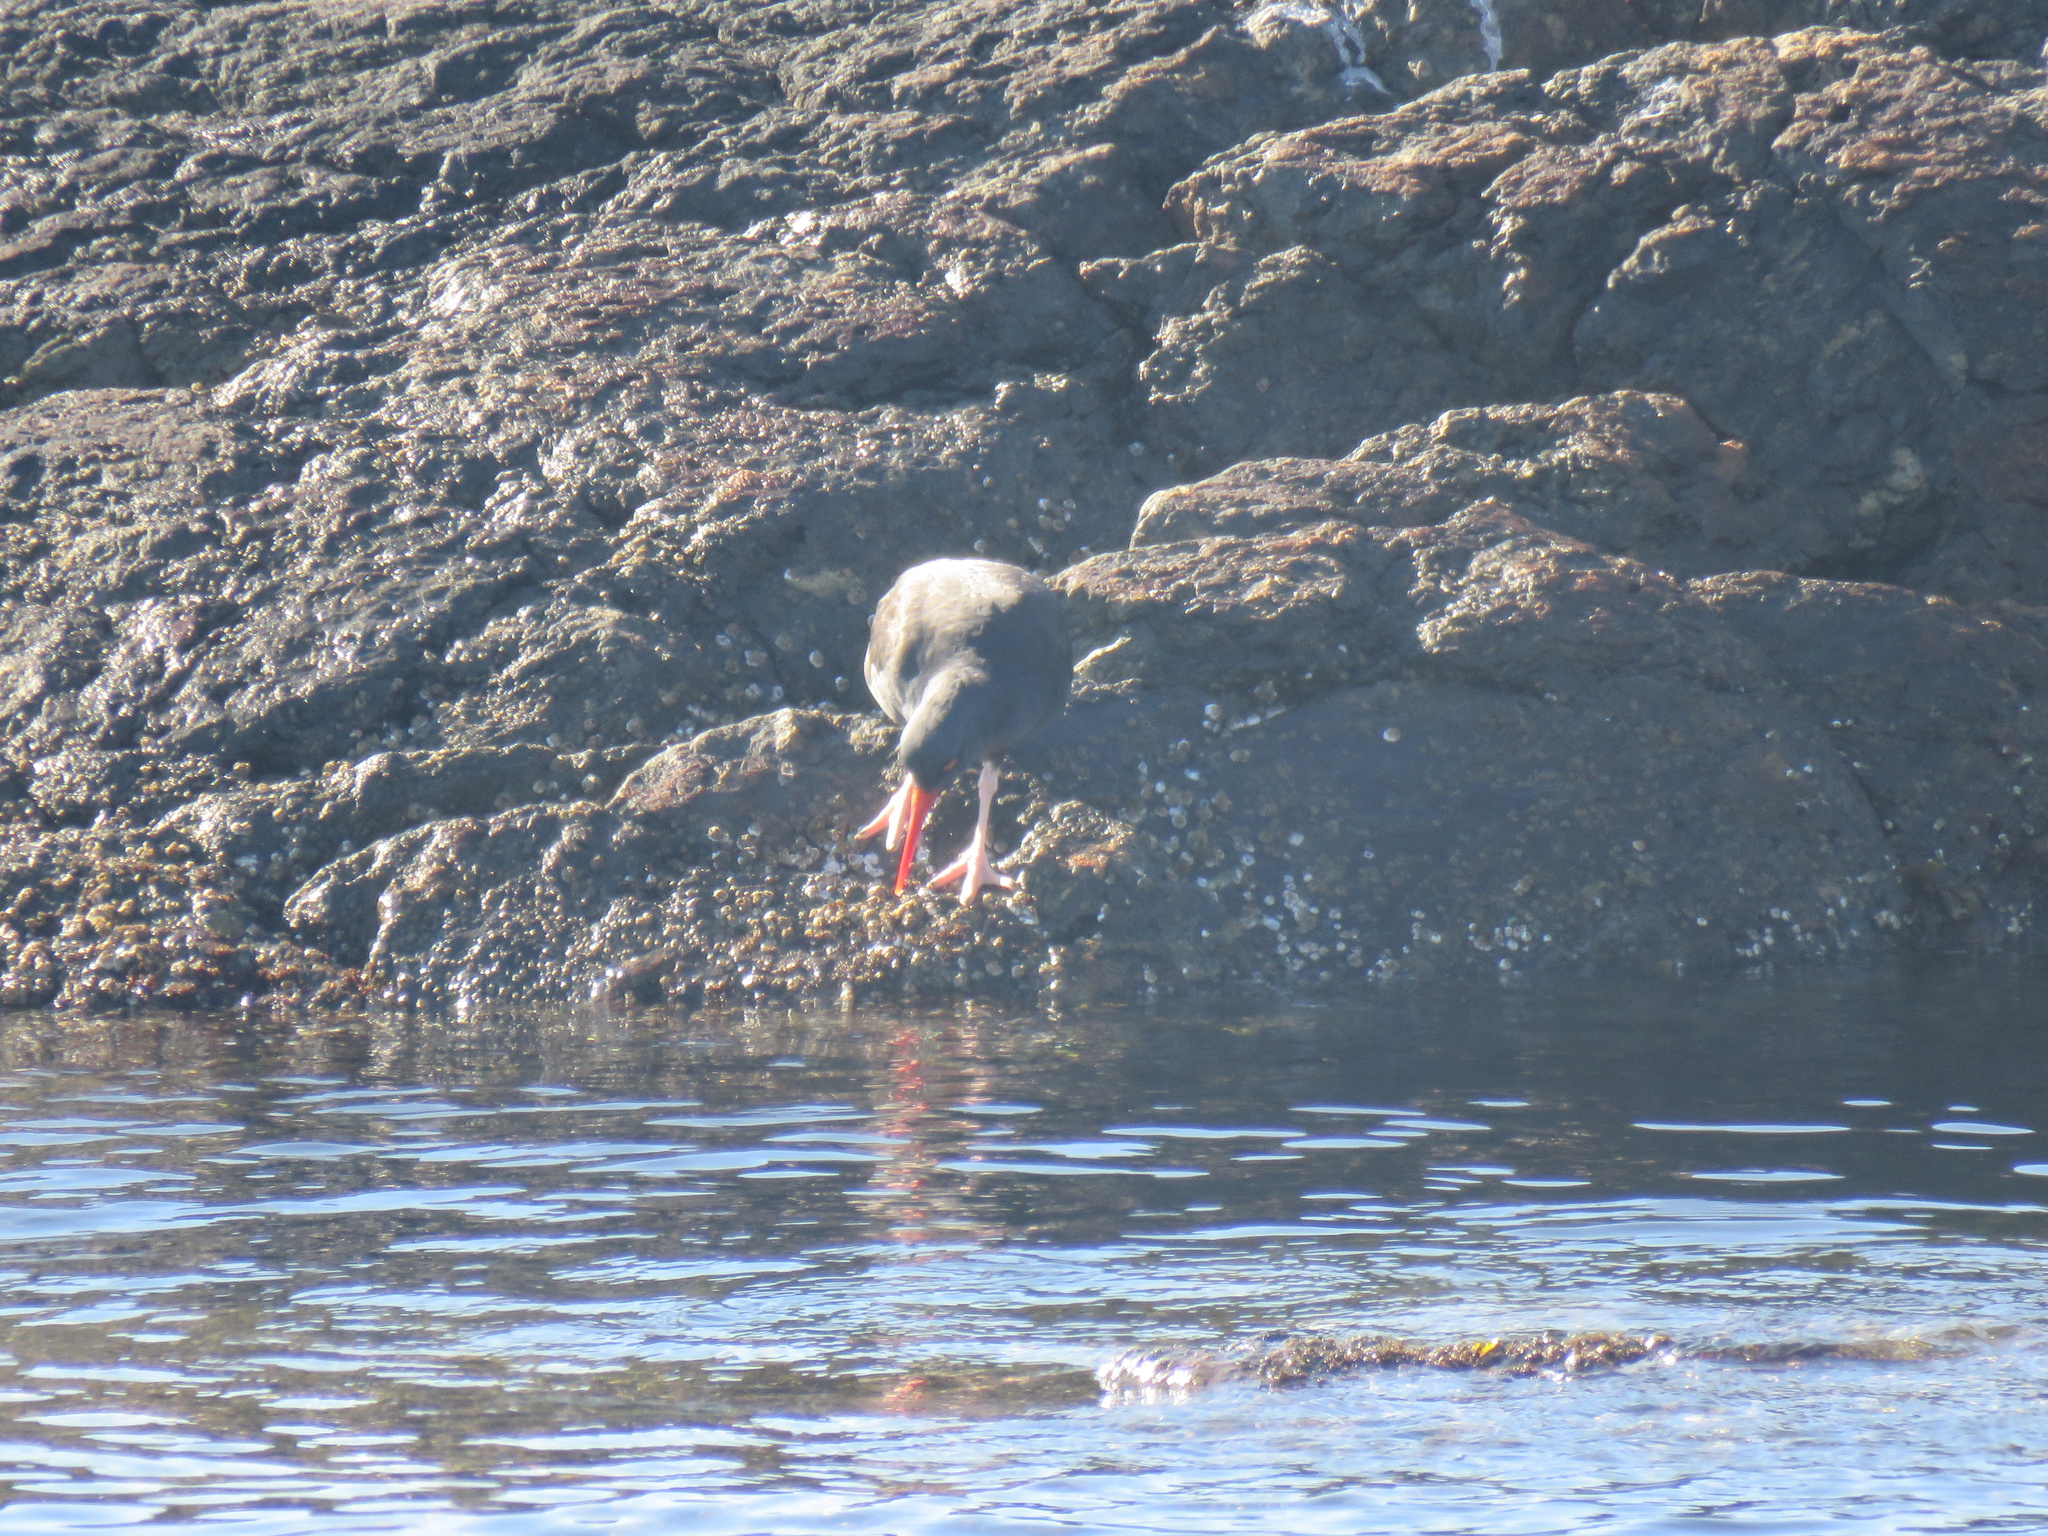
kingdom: Animalia
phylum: Chordata
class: Aves
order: Charadriiformes
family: Haematopodidae
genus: Haematopus
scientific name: Haematopus bachmani
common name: Black oystercatcher
